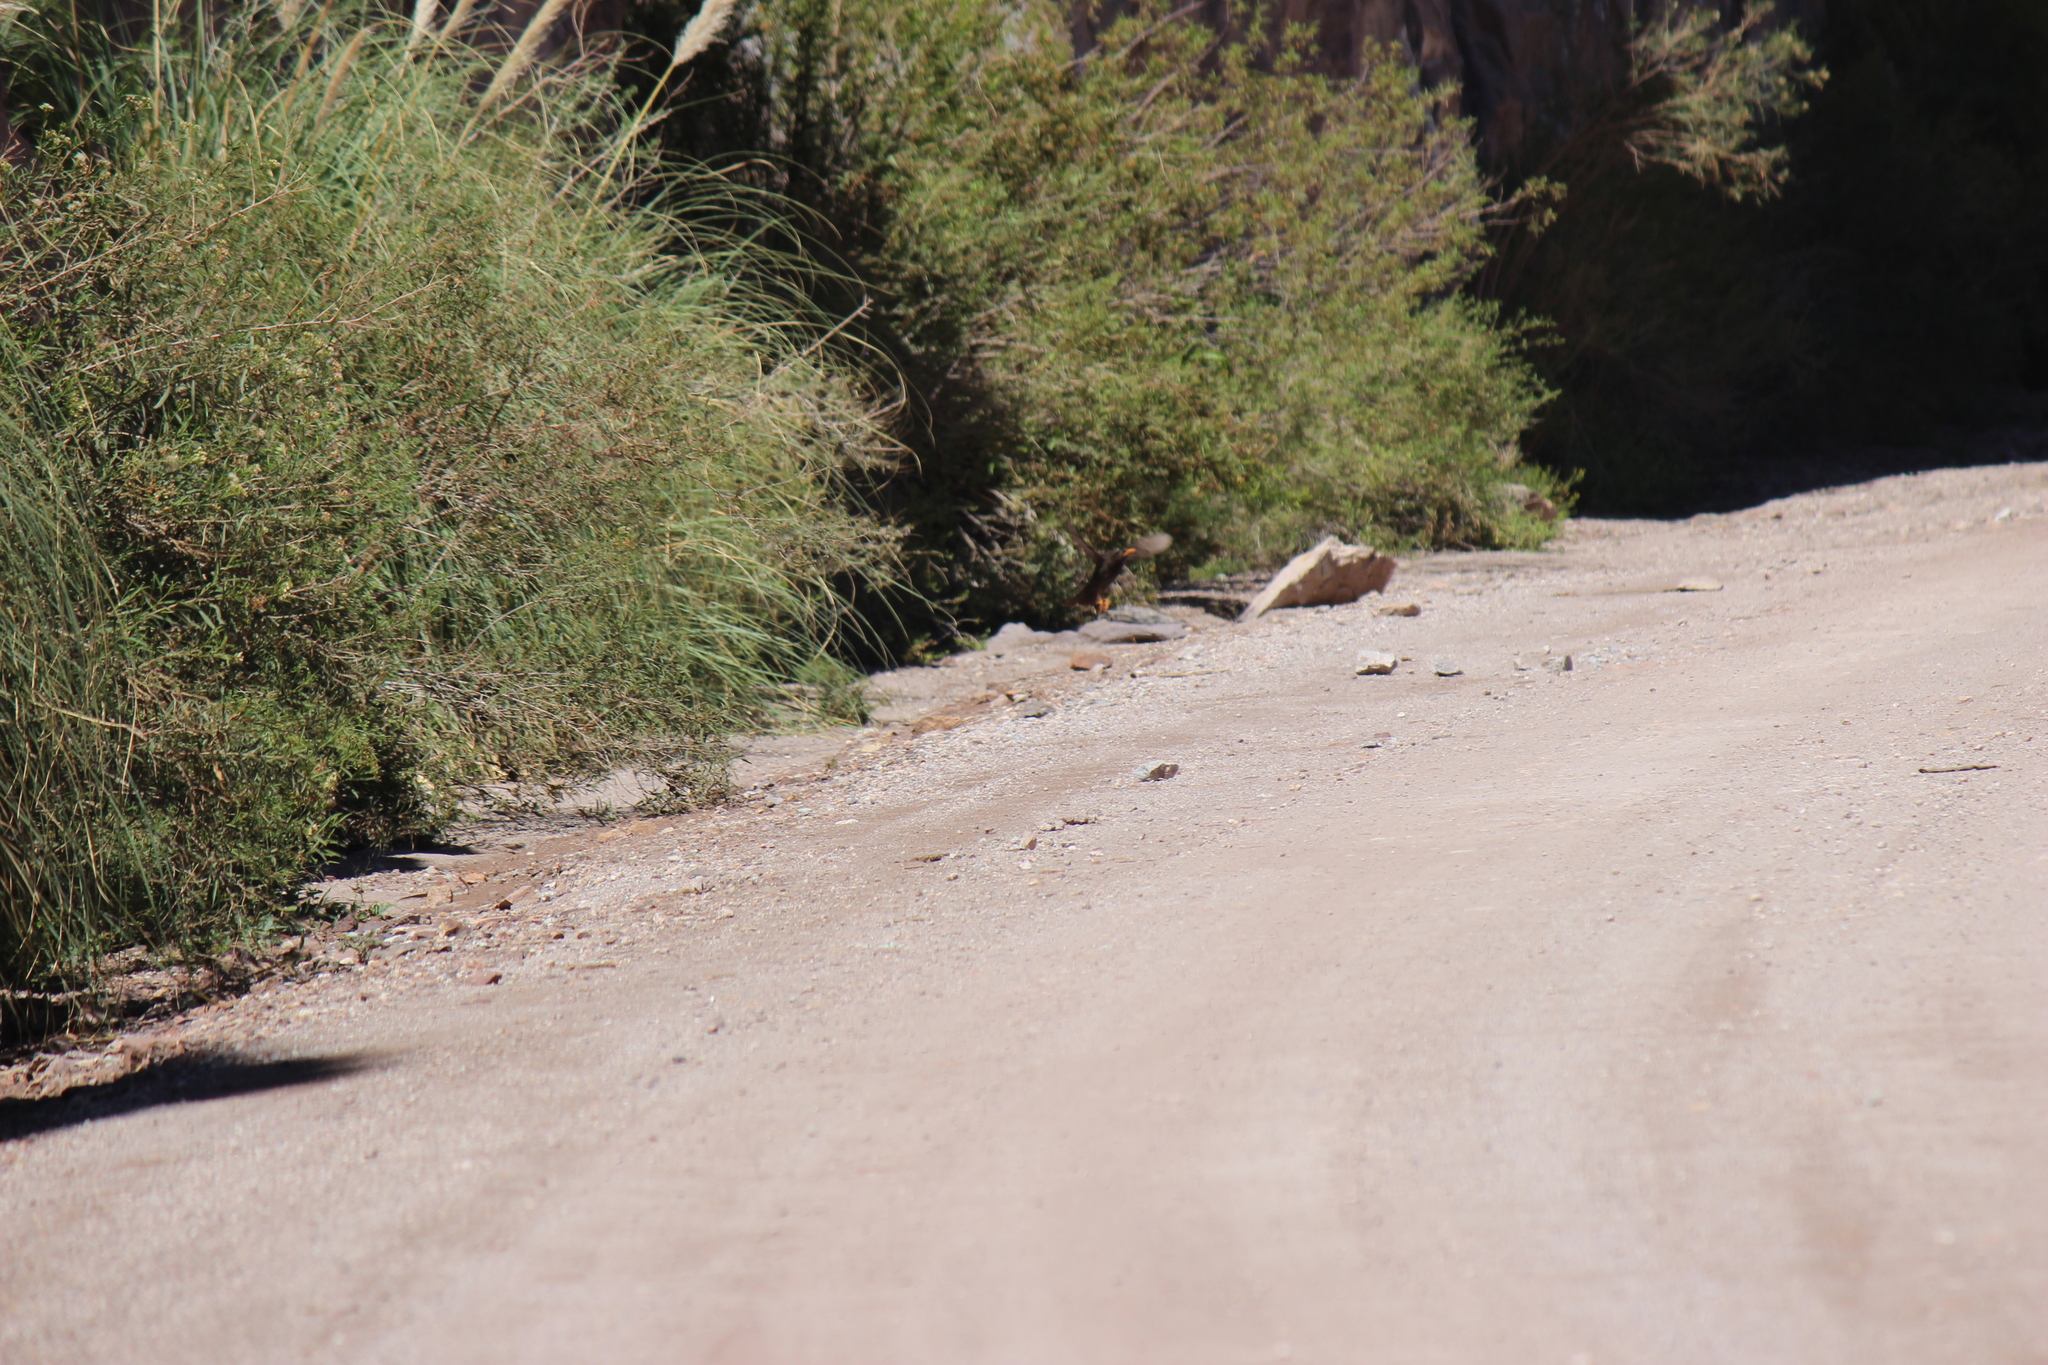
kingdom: Animalia
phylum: Chordata
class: Aves
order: Passeriformes
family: Turdidae
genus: Turdus
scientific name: Turdus chiguanco
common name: Chiguanco thrush
